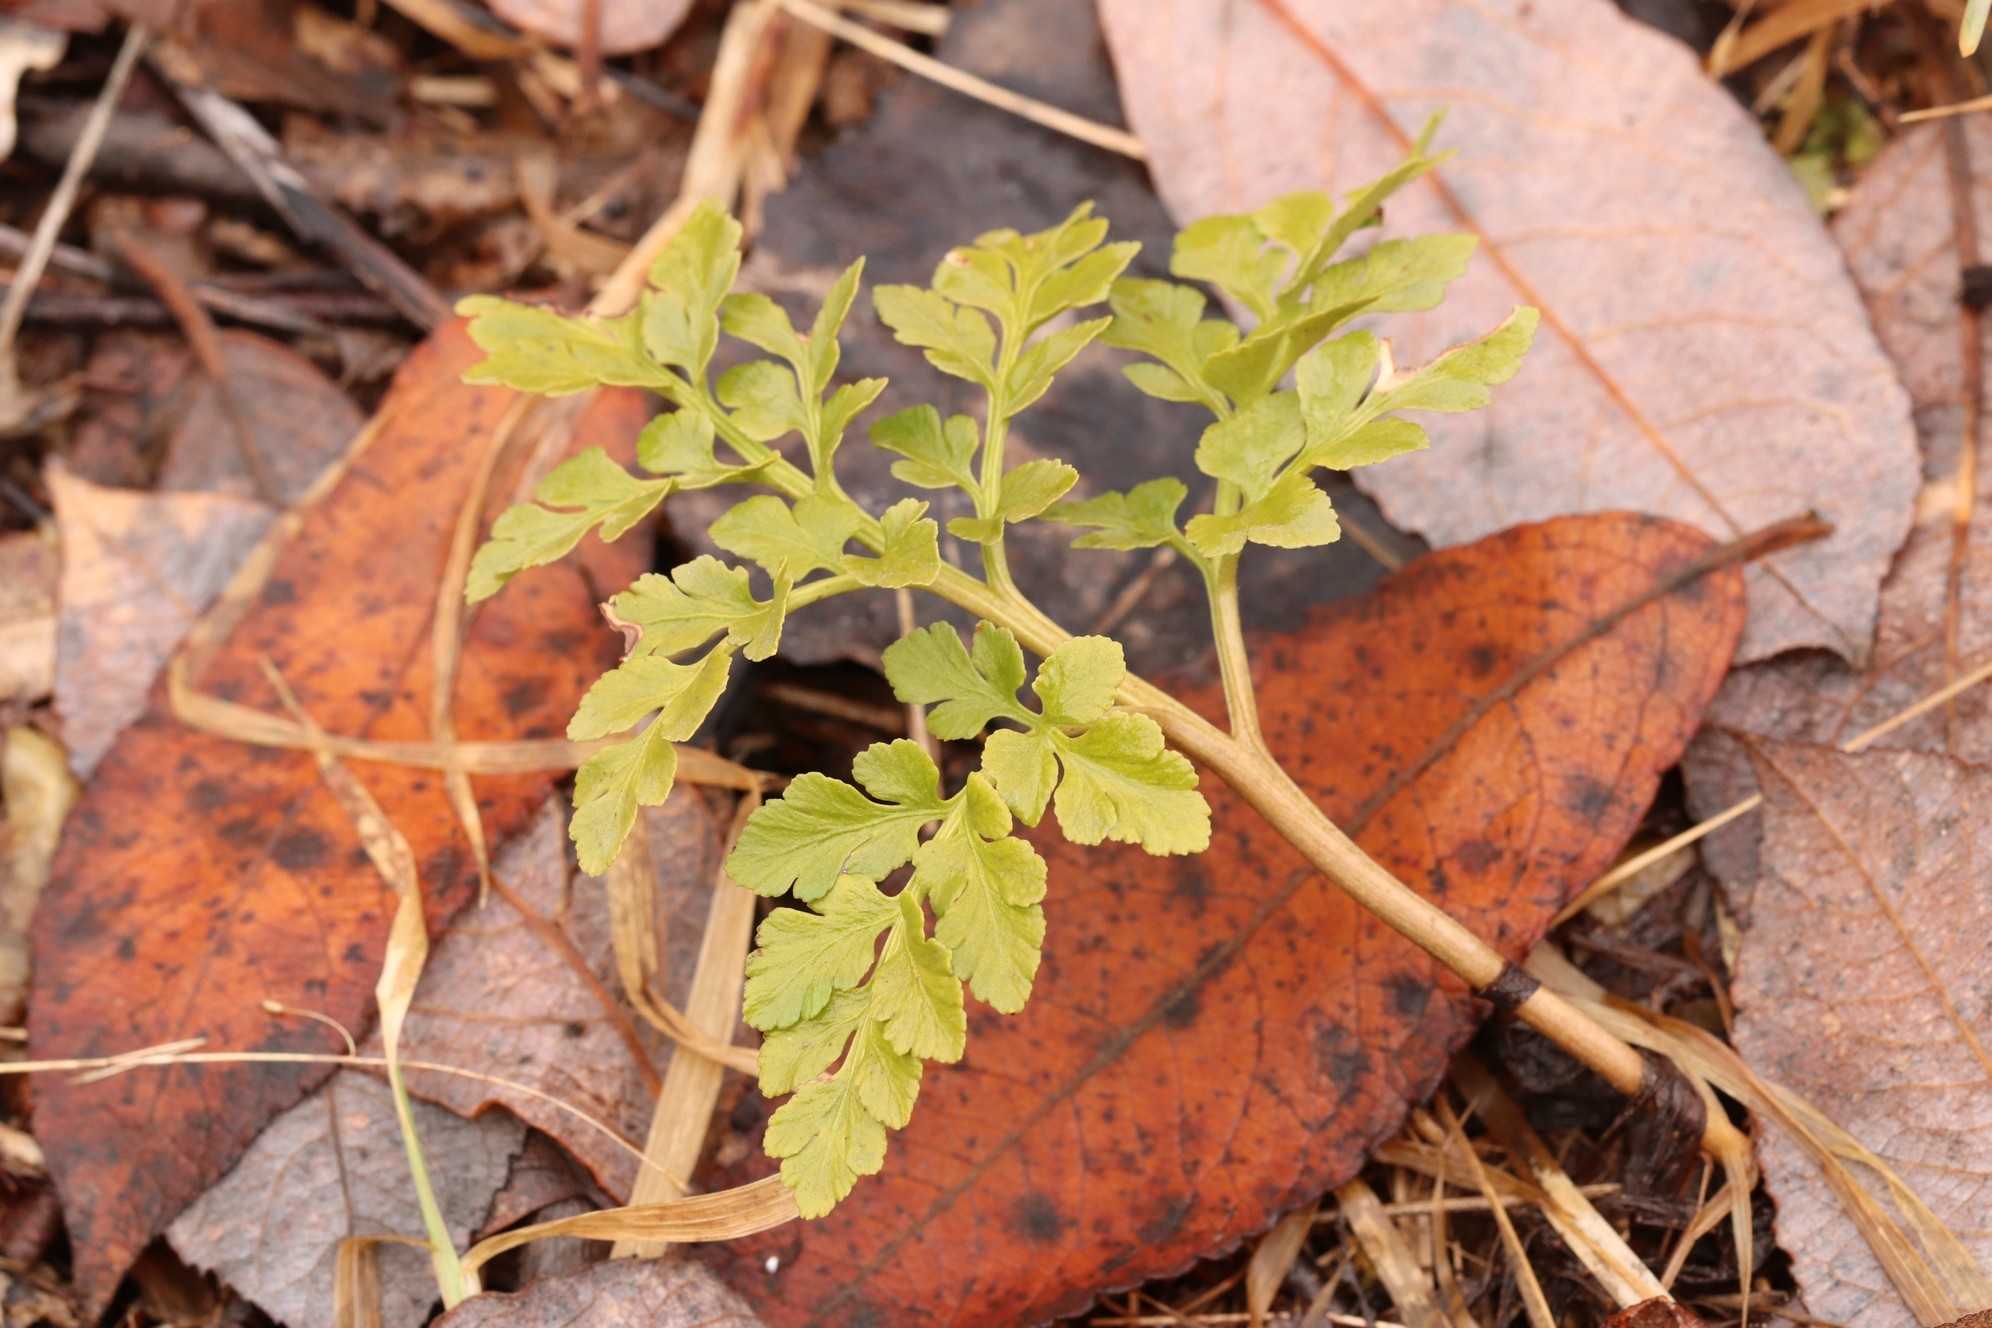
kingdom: Plantae
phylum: Tracheophyta
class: Polypodiopsida
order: Ophioglossales
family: Ophioglossaceae
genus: Sceptridium
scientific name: Sceptridium multifidum
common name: Leathery grape fern
